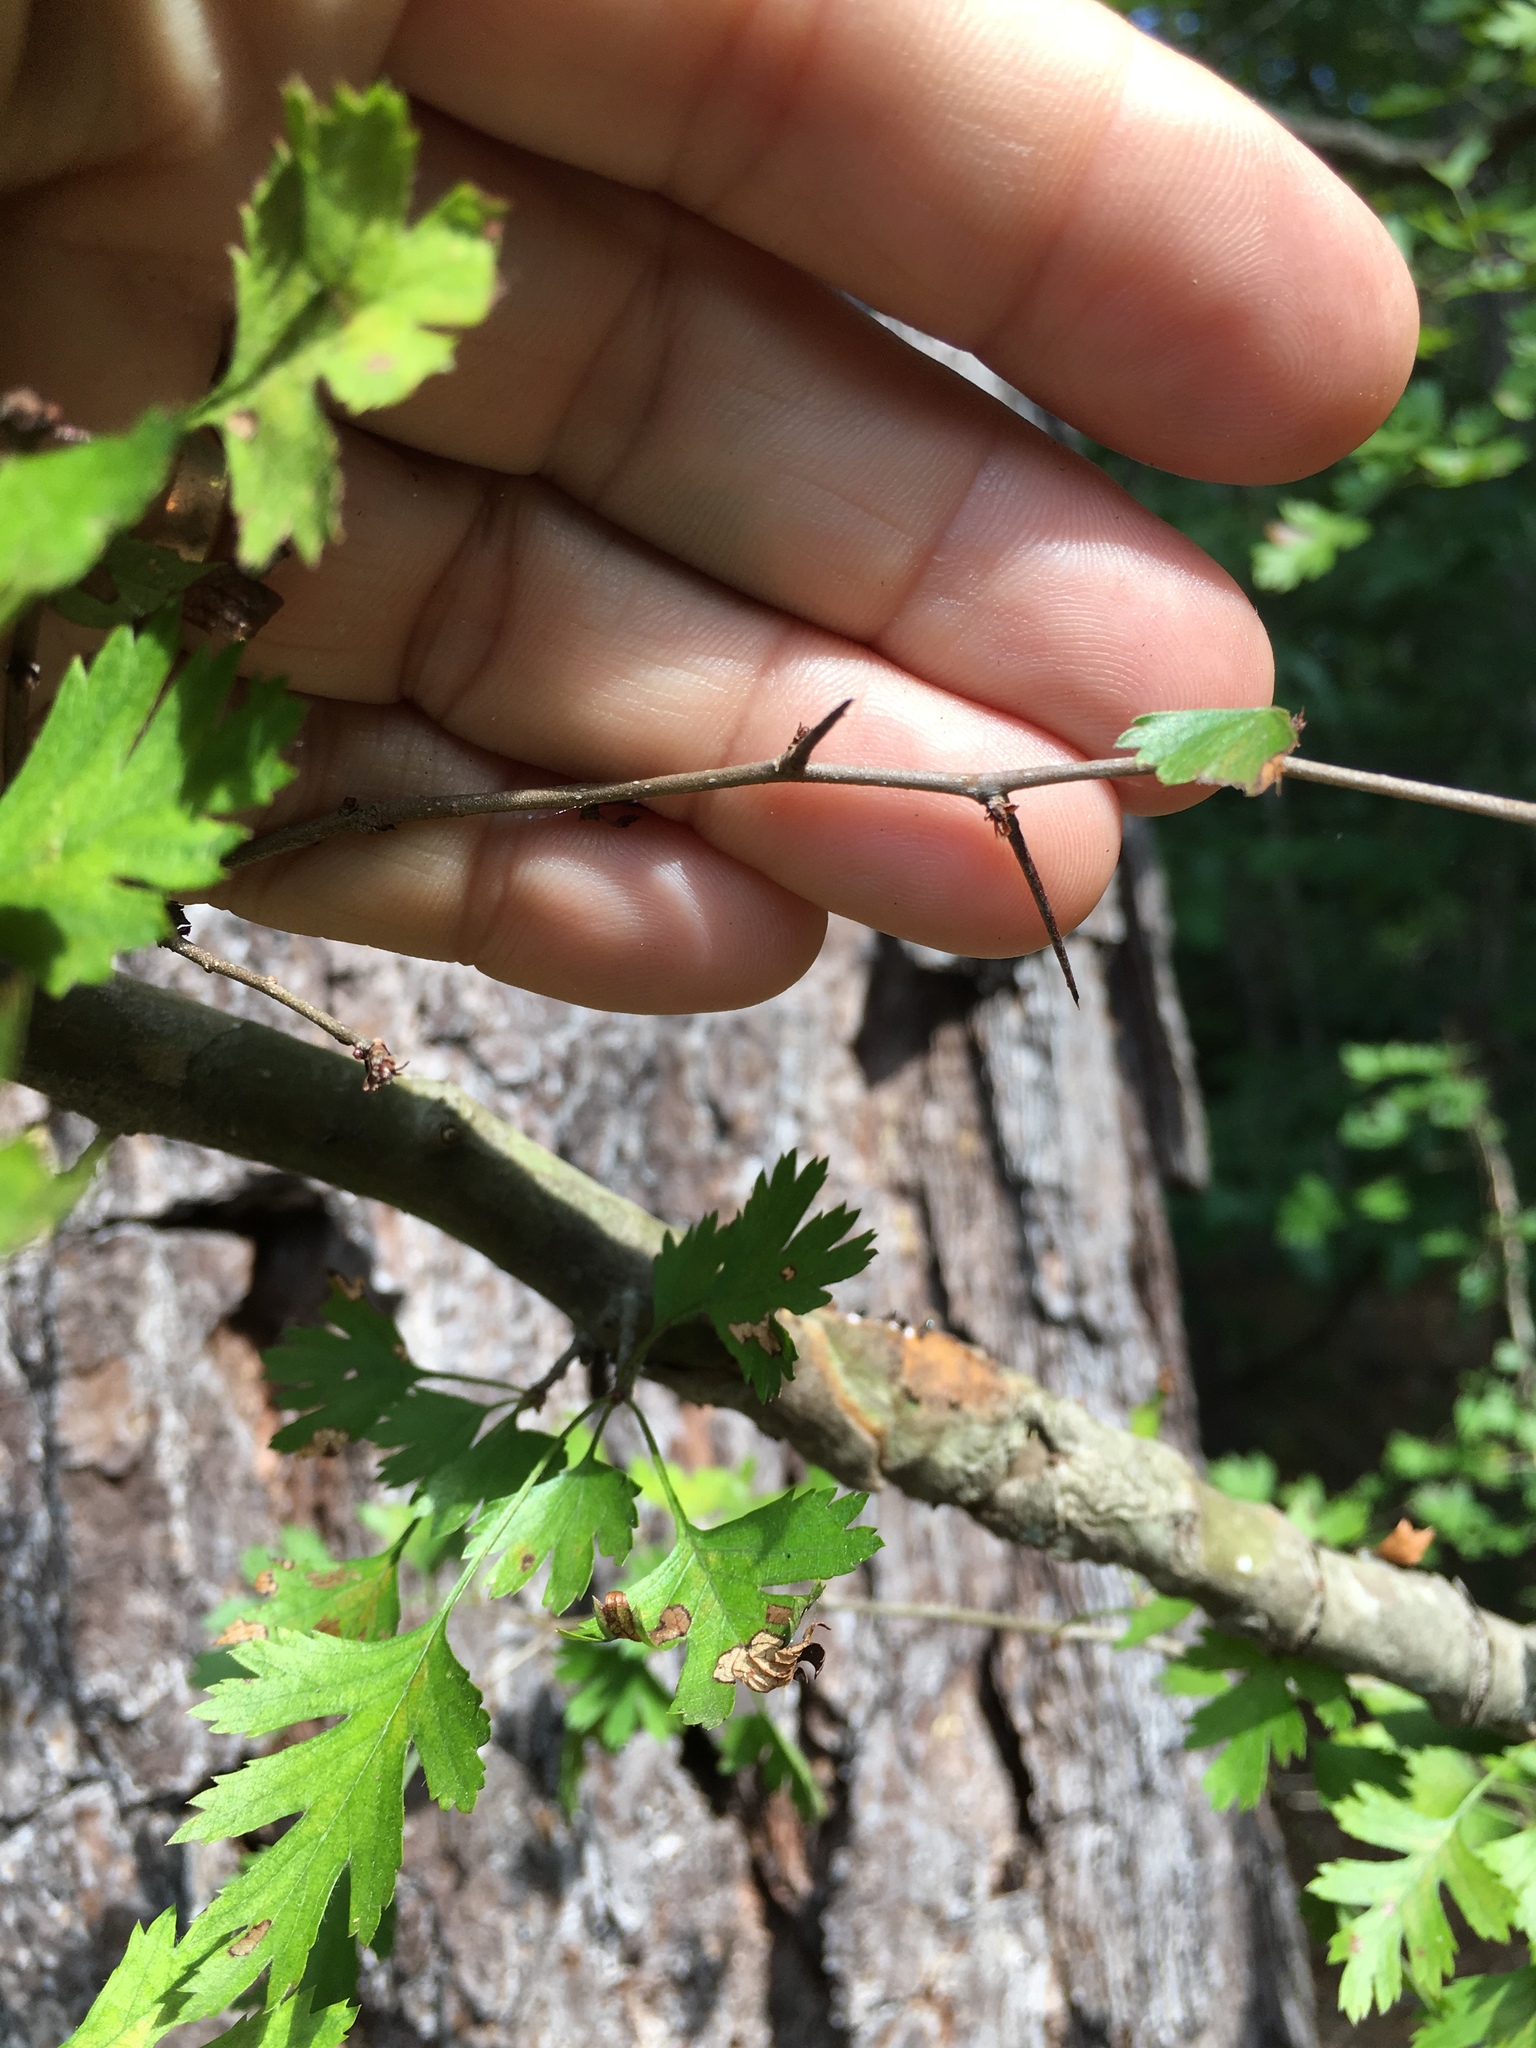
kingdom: Plantae
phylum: Tracheophyta
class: Magnoliopsida
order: Rosales
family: Rosaceae
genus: Crataegus
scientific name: Crataegus marshallii
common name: Parsley-hawthorn
